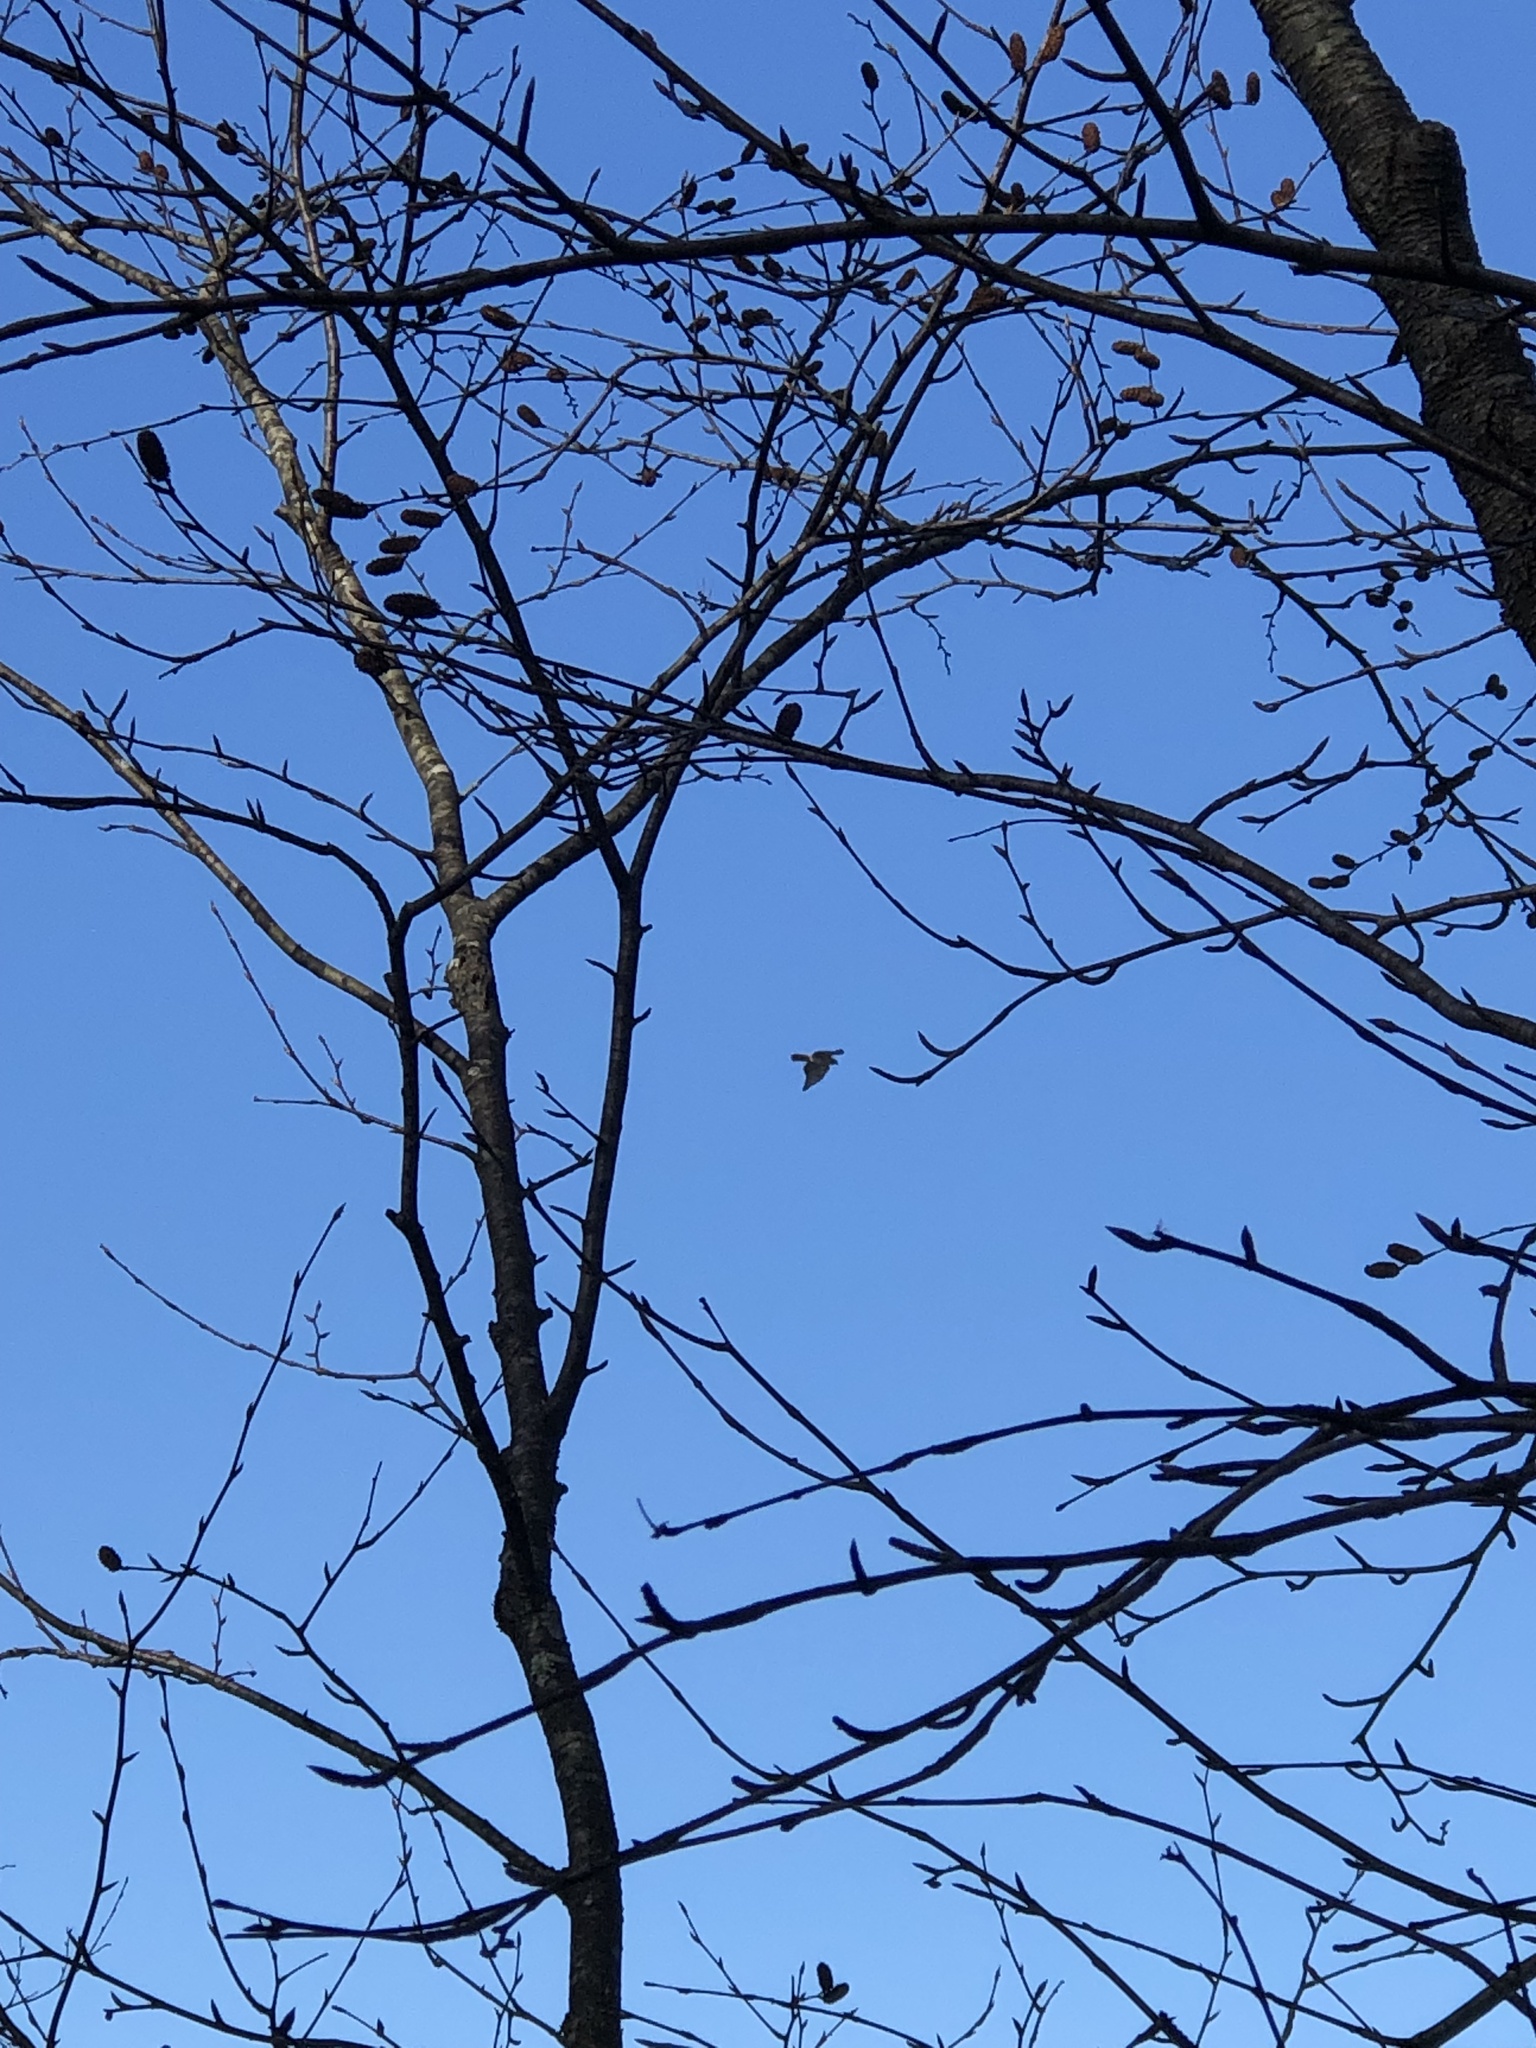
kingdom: Animalia
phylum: Chordata
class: Aves
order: Accipitriformes
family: Accipitridae
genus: Buteo
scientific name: Buteo jamaicensis
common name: Red-tailed hawk
